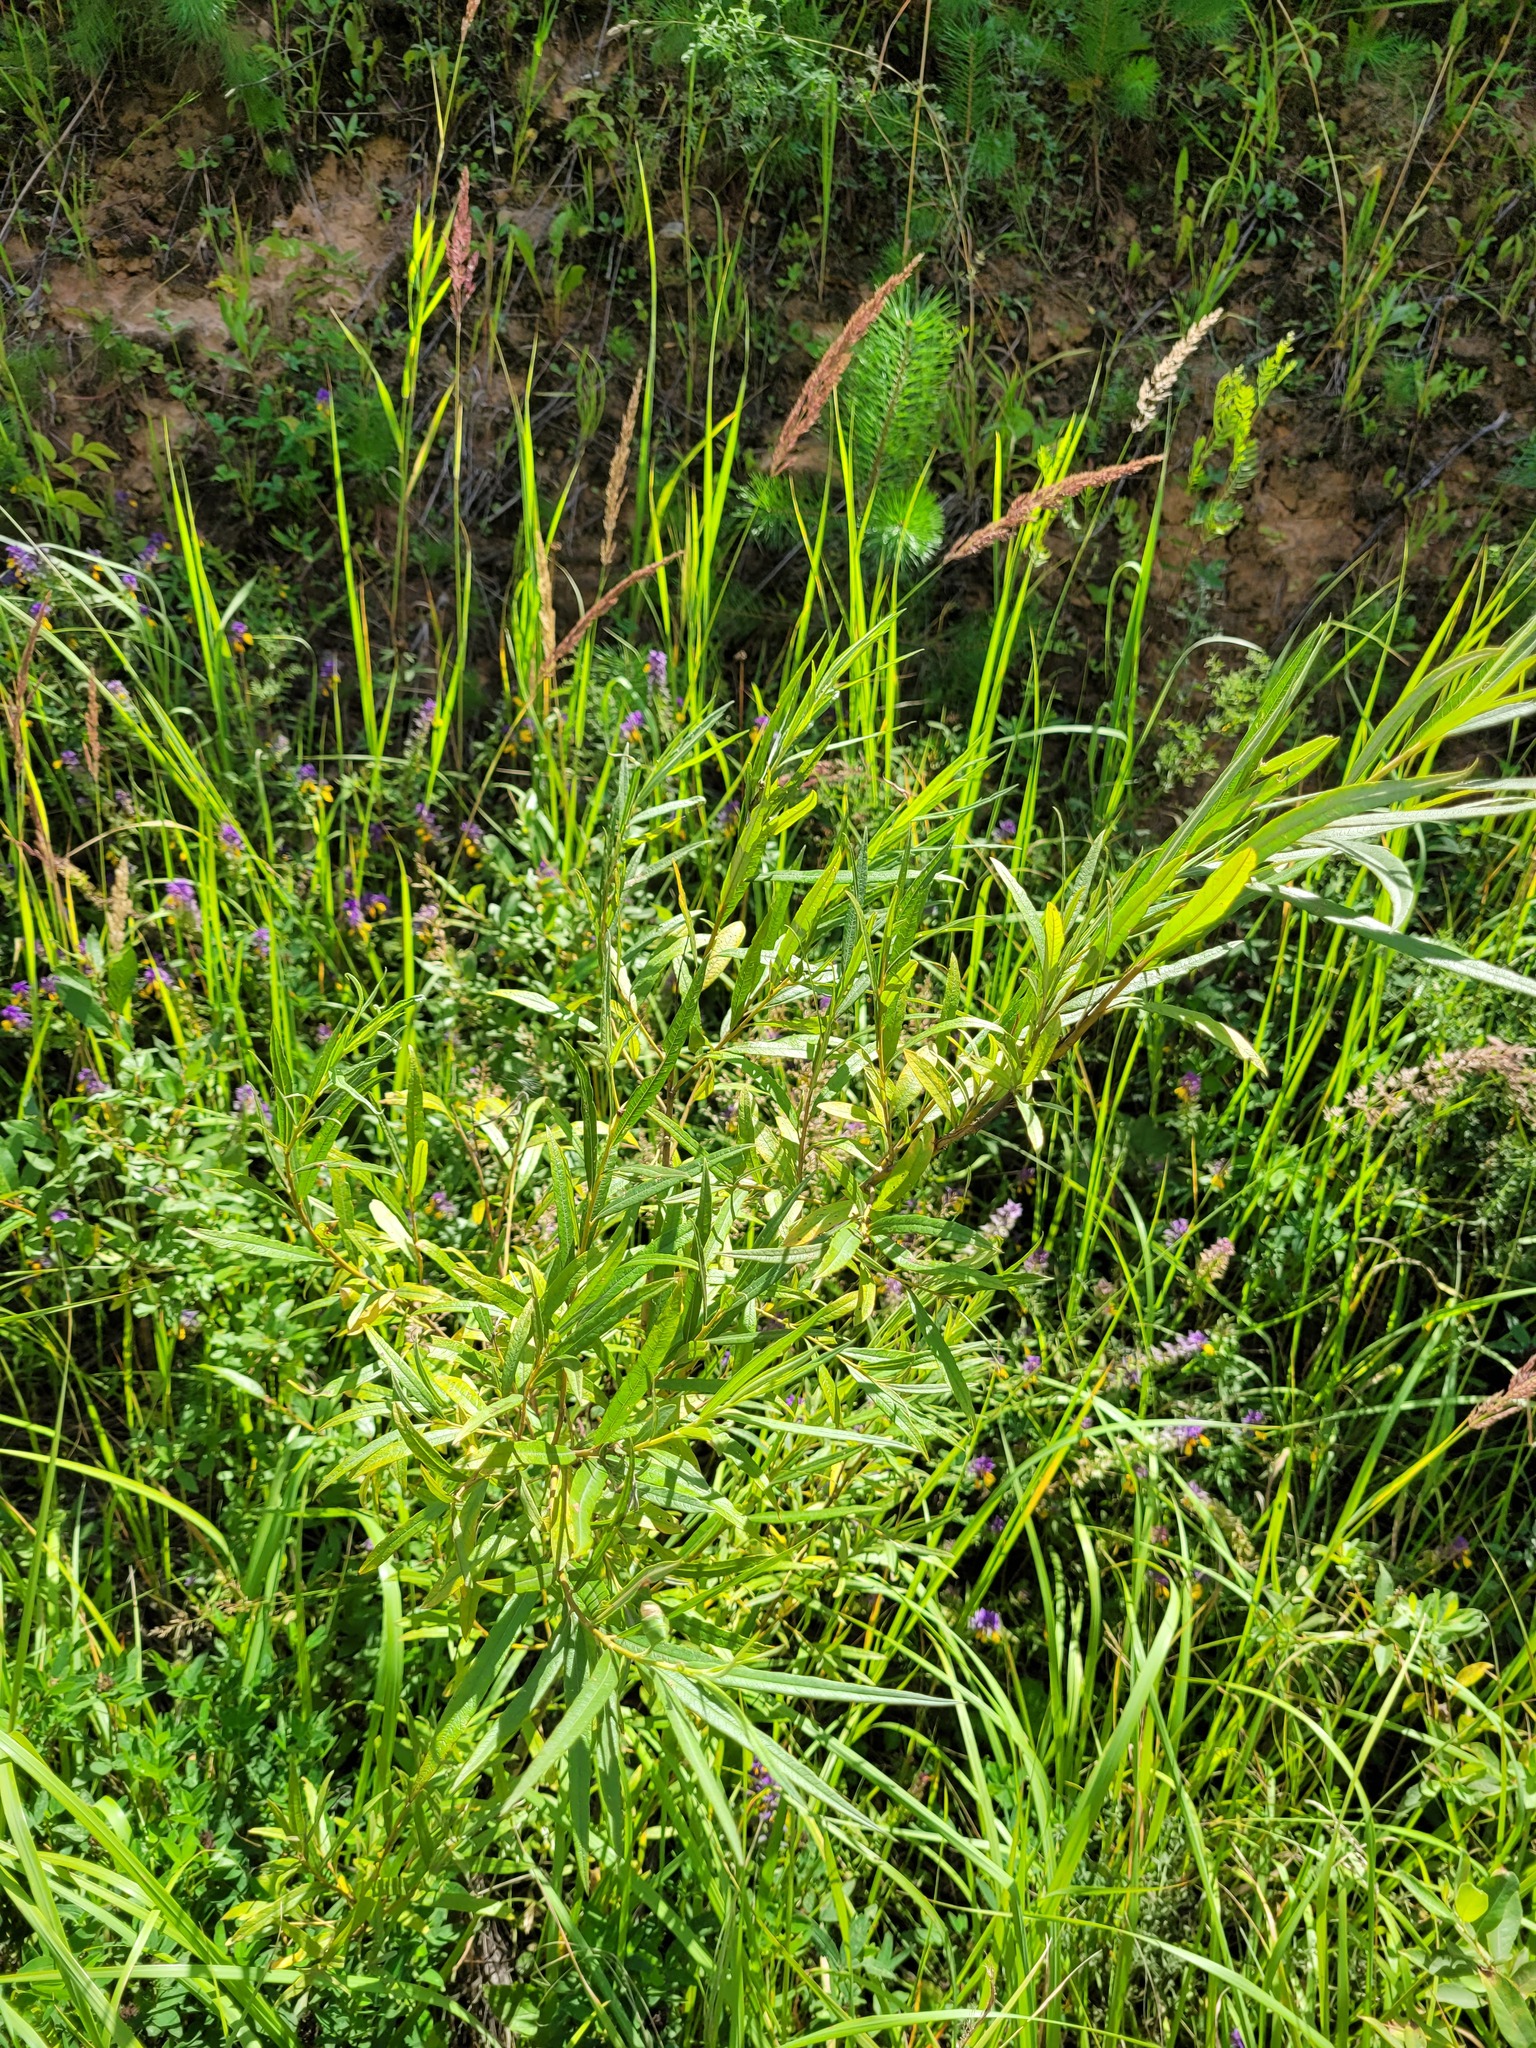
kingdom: Plantae
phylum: Tracheophyta
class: Magnoliopsida
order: Malpighiales
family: Salicaceae
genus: Salix
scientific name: Salix viminalis
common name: Osier
